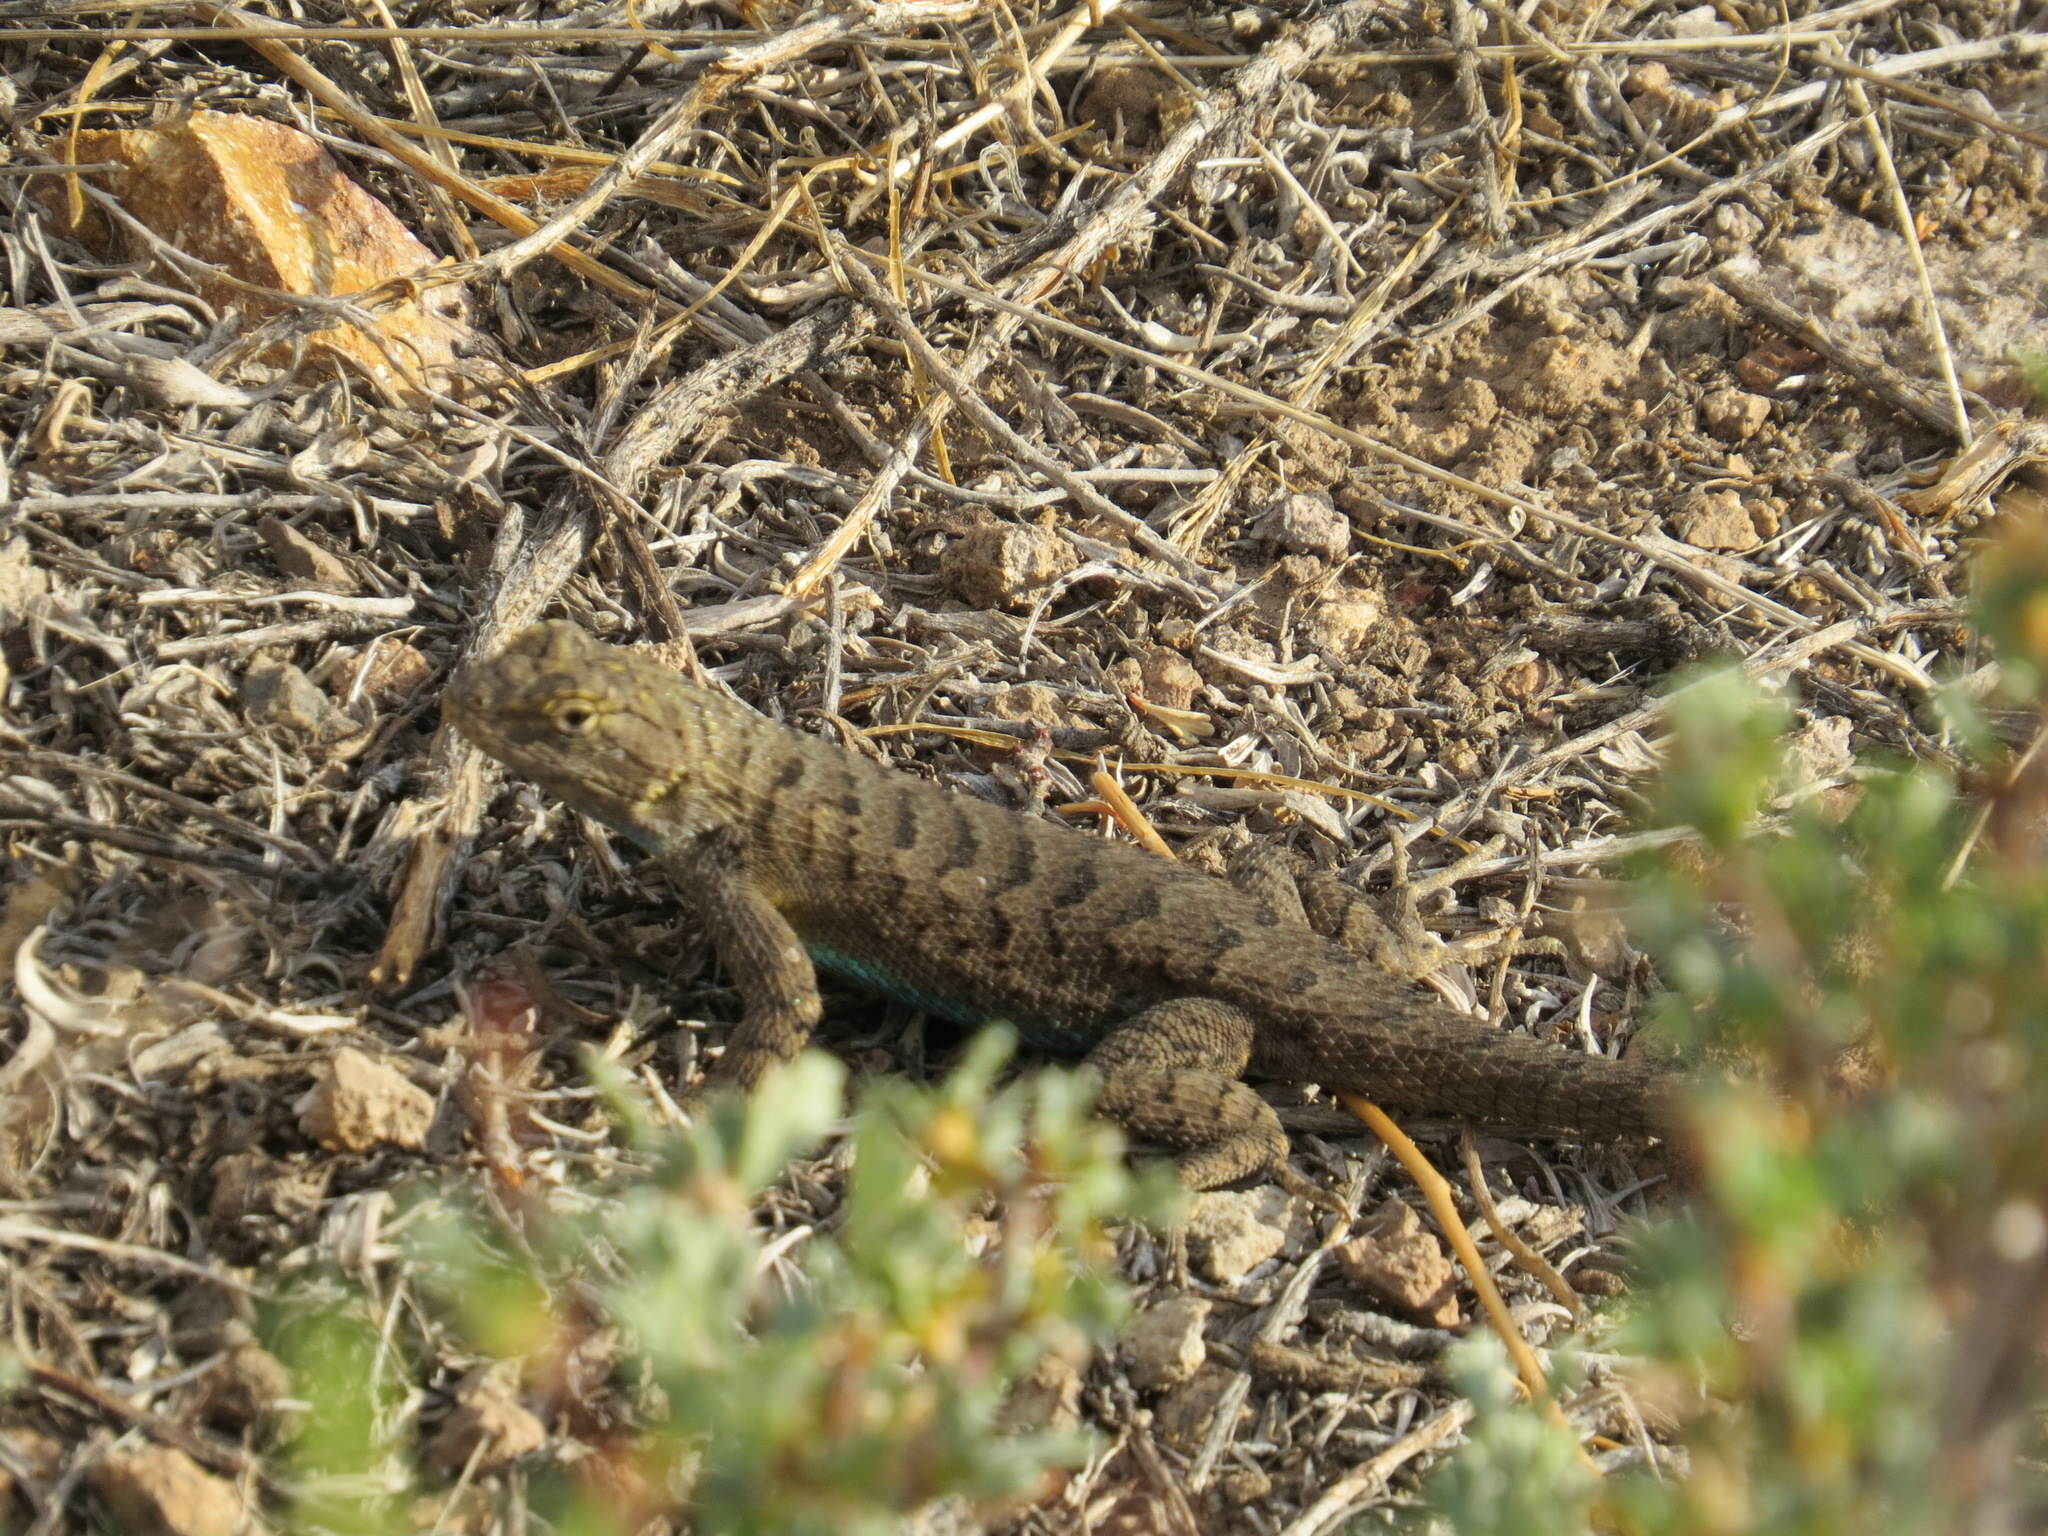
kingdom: Animalia
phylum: Chordata
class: Squamata
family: Phrynosomatidae
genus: Sceloporus
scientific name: Sceloporus occidentalis
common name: Western fence lizard
